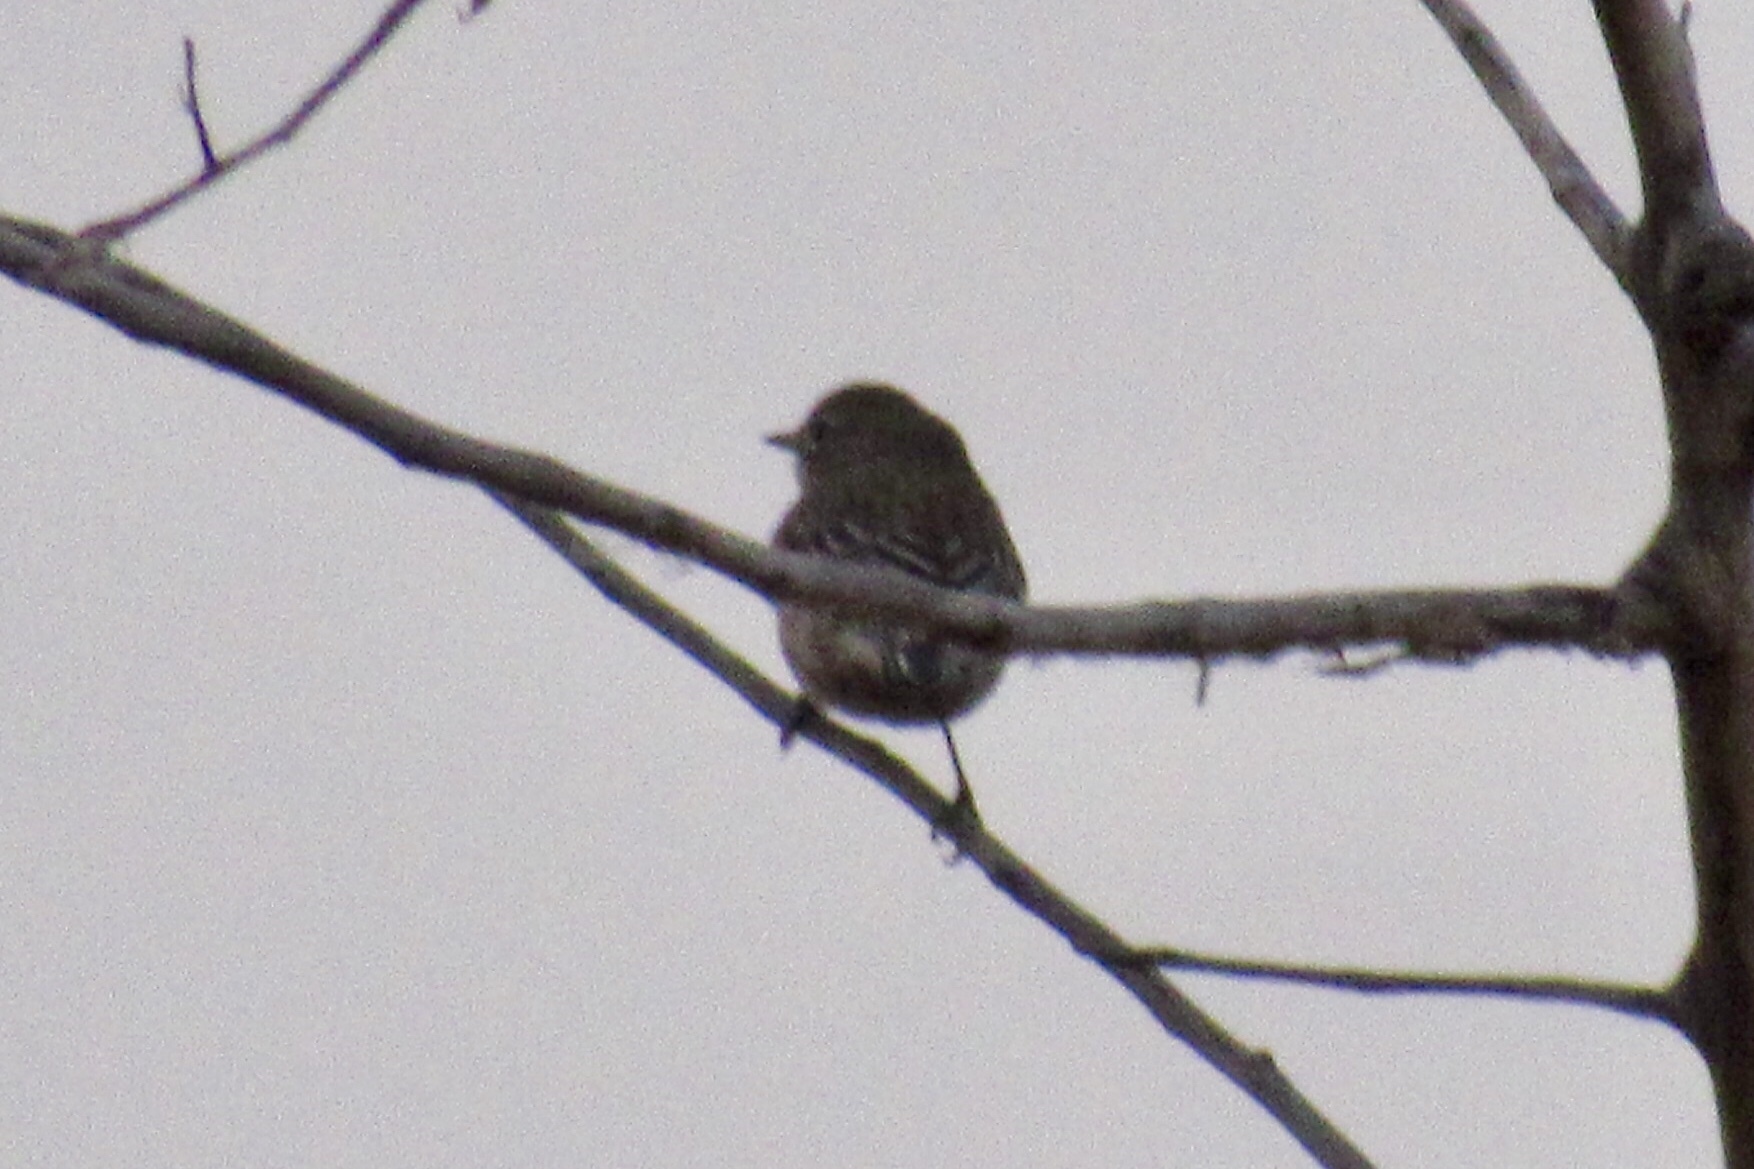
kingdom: Animalia
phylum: Chordata
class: Aves
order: Passeriformes
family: Parulidae
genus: Setophaga
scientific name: Setophaga coronata
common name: Myrtle warbler
